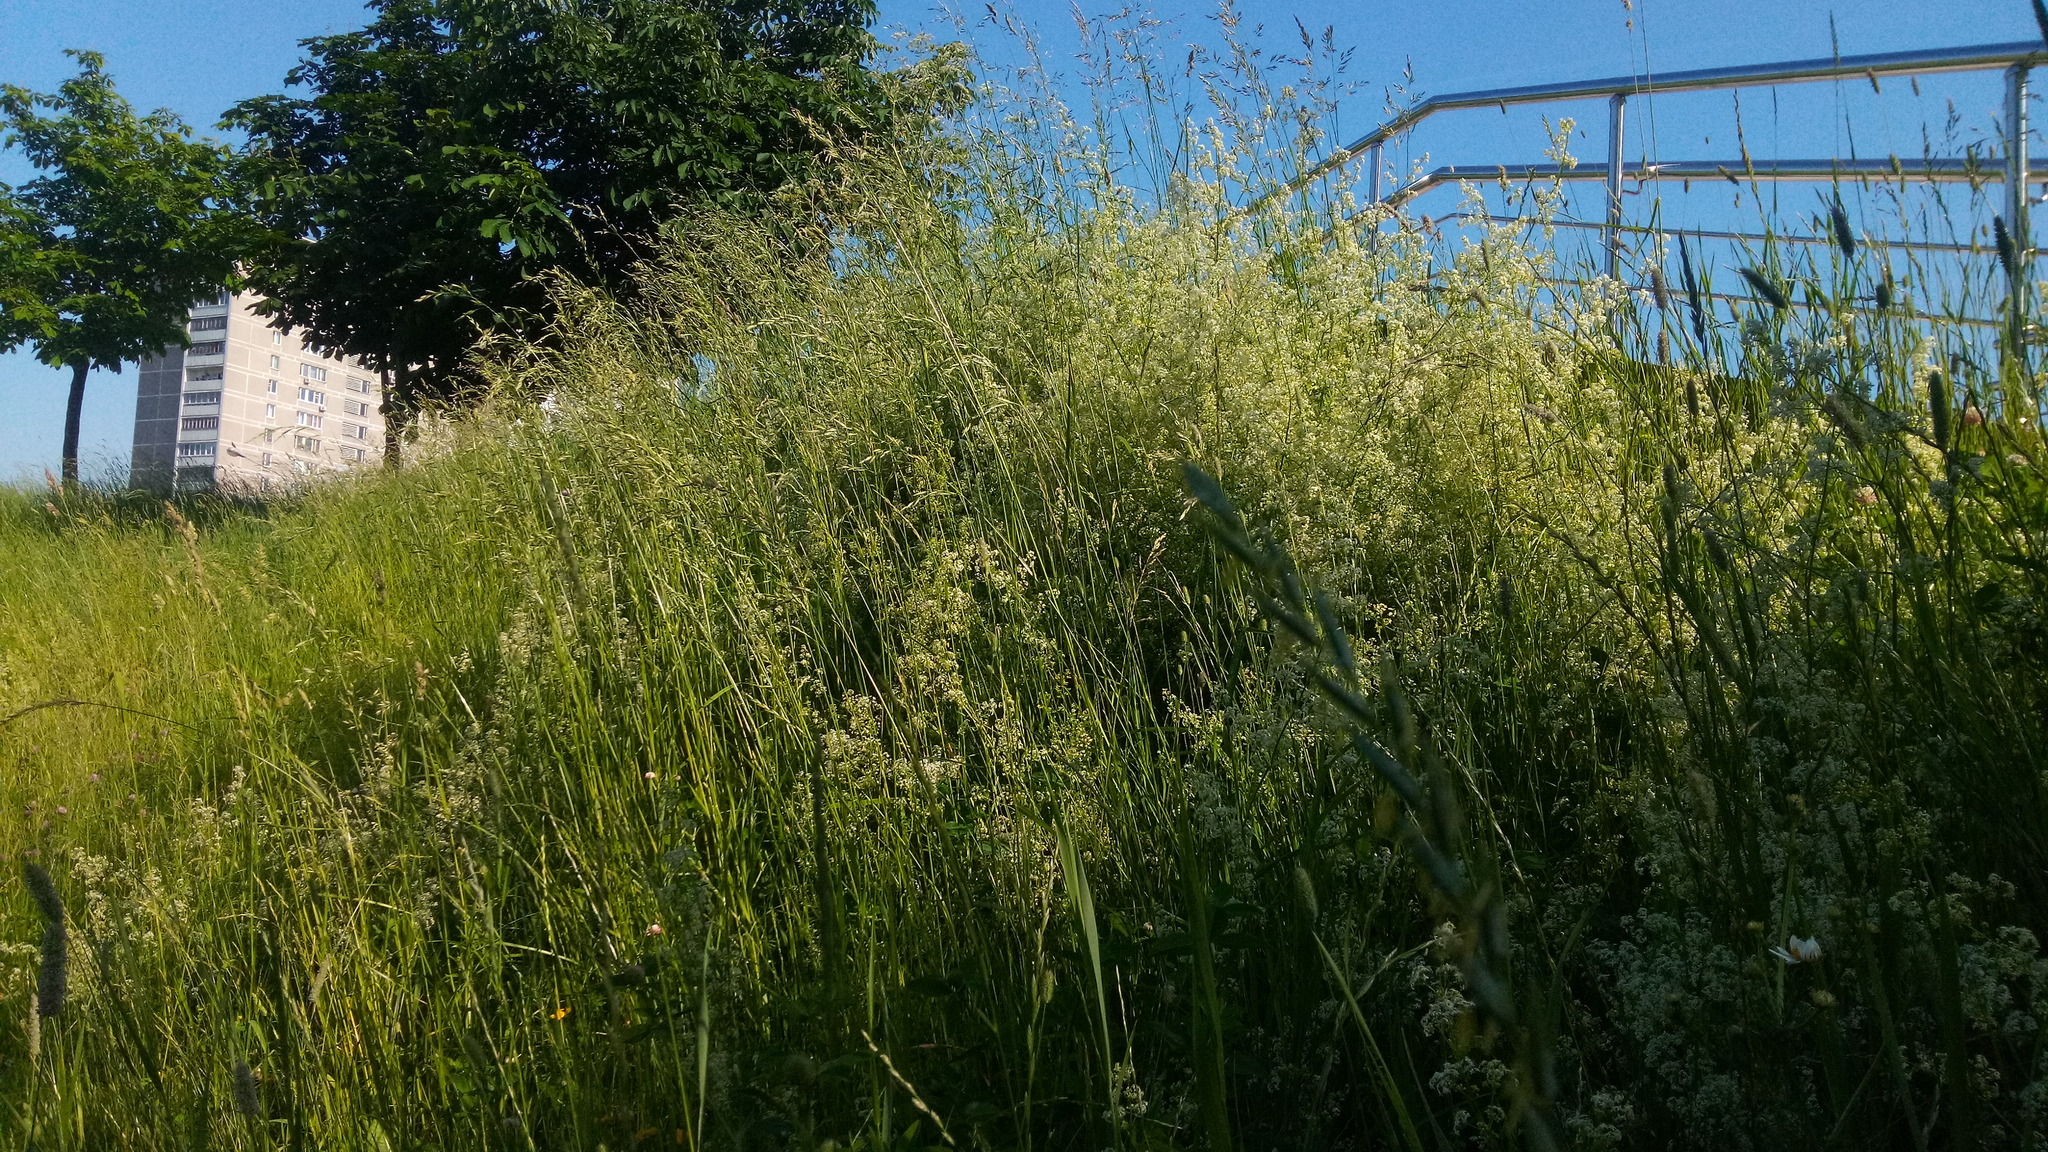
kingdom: Plantae
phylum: Tracheophyta
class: Magnoliopsida
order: Gentianales
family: Rubiaceae
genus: Galium
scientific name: Galium mollugo
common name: Hedge bedstraw
